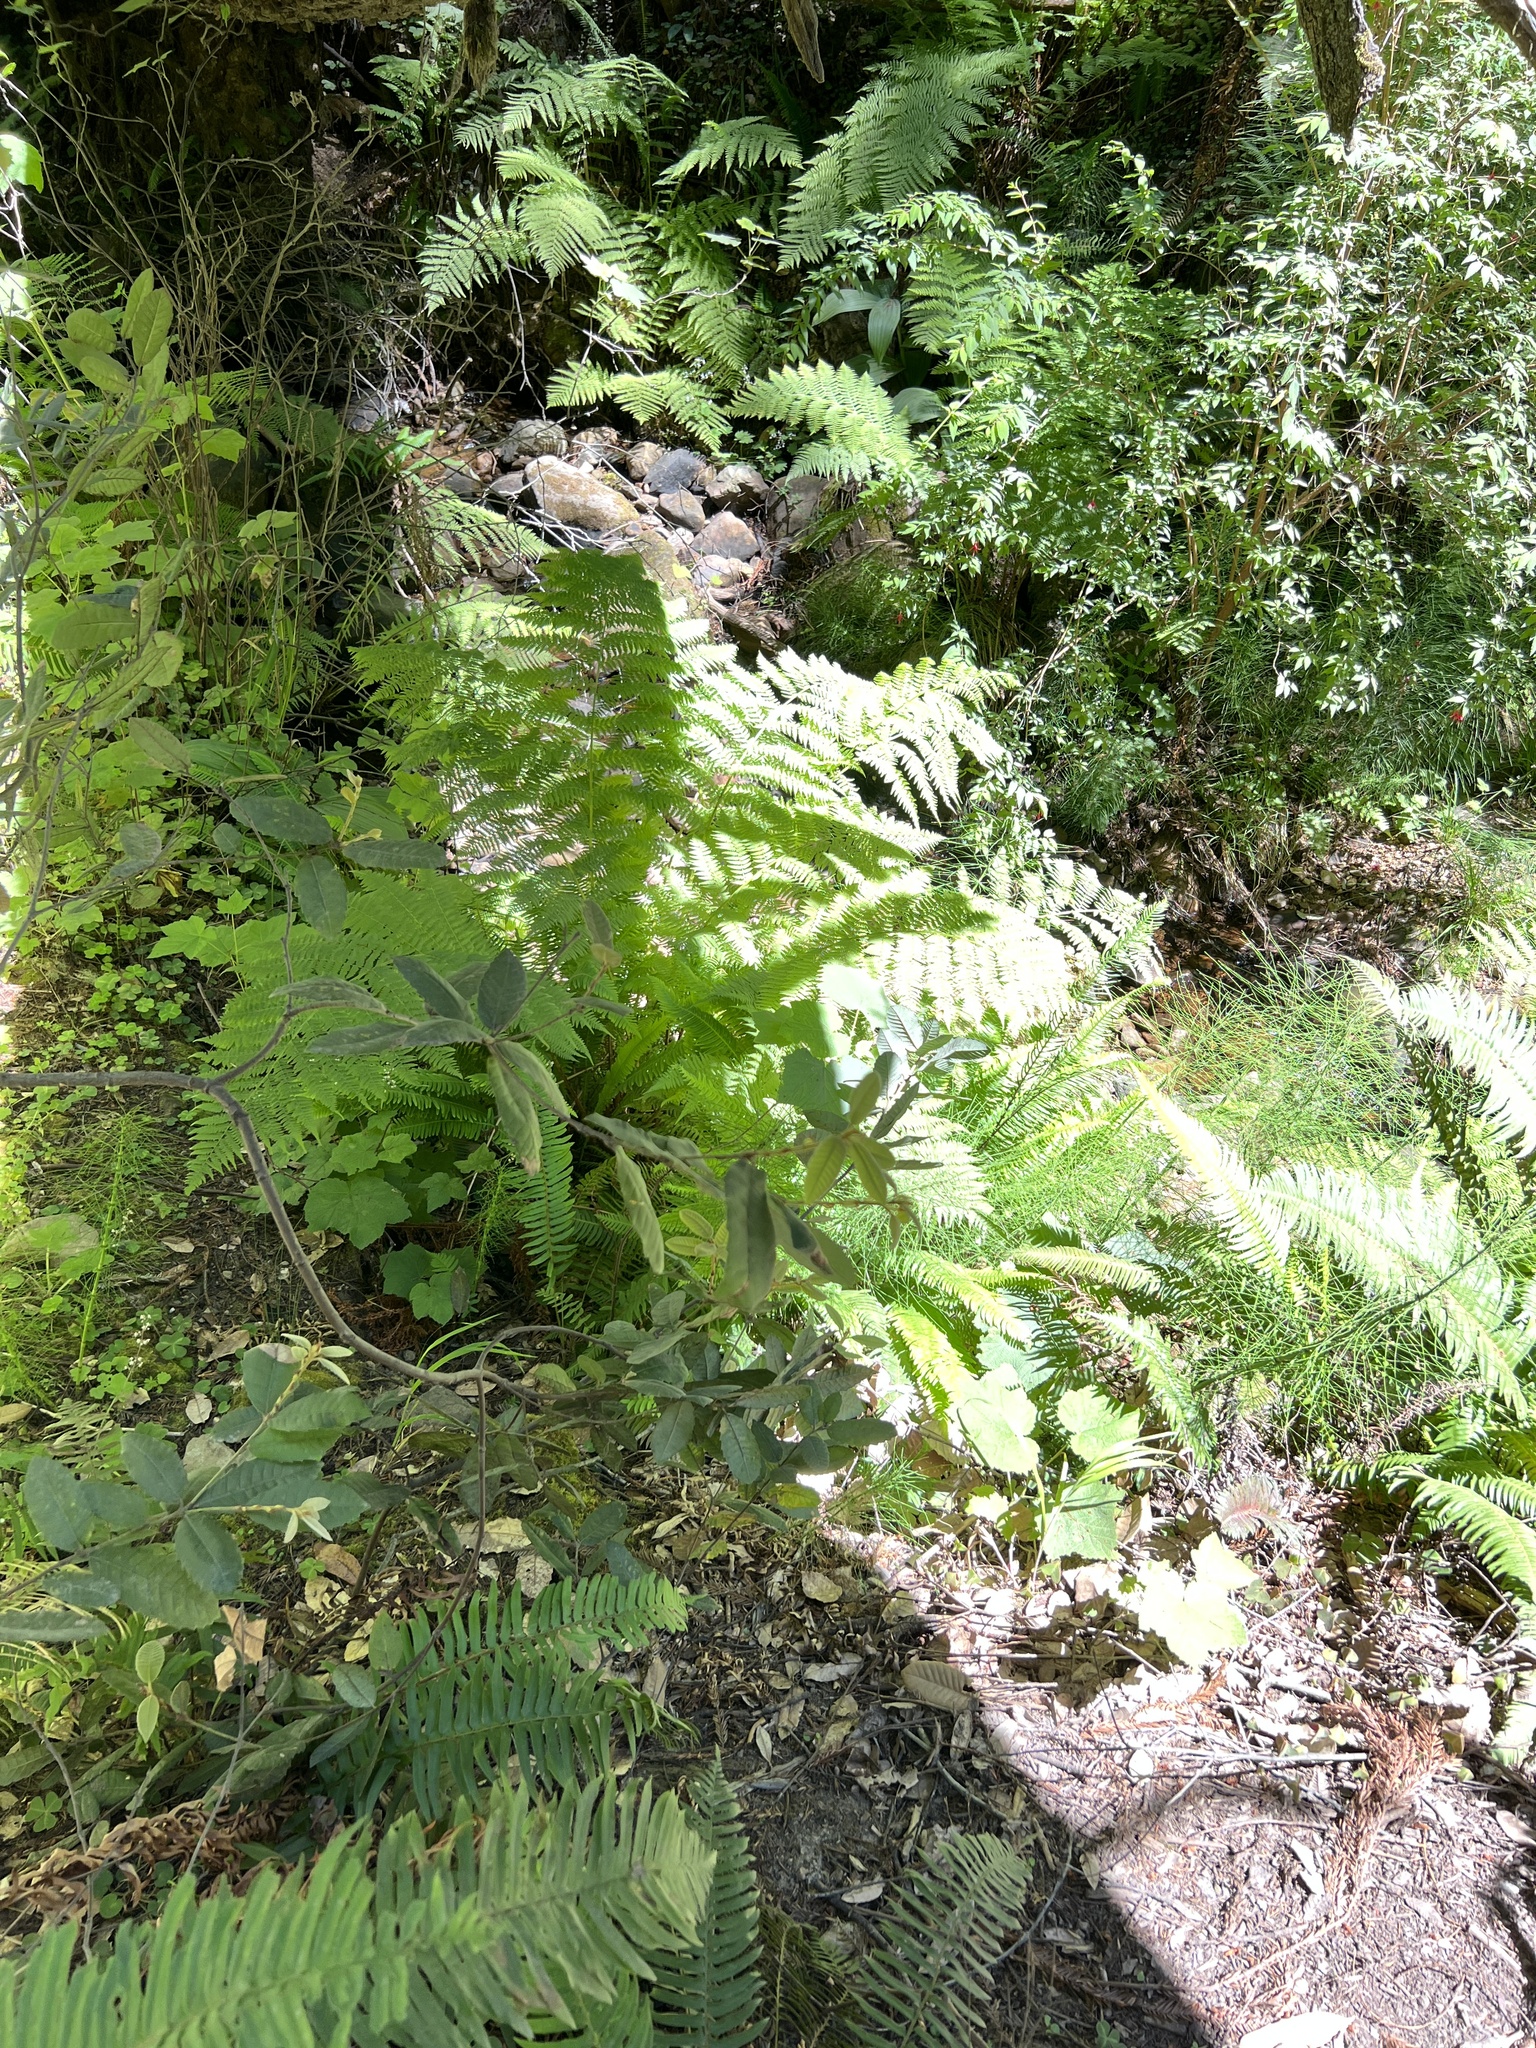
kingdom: Plantae
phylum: Tracheophyta
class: Polypodiopsida
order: Polypodiales
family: Athyriaceae
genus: Athyrium
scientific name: Athyrium cyclosorum
